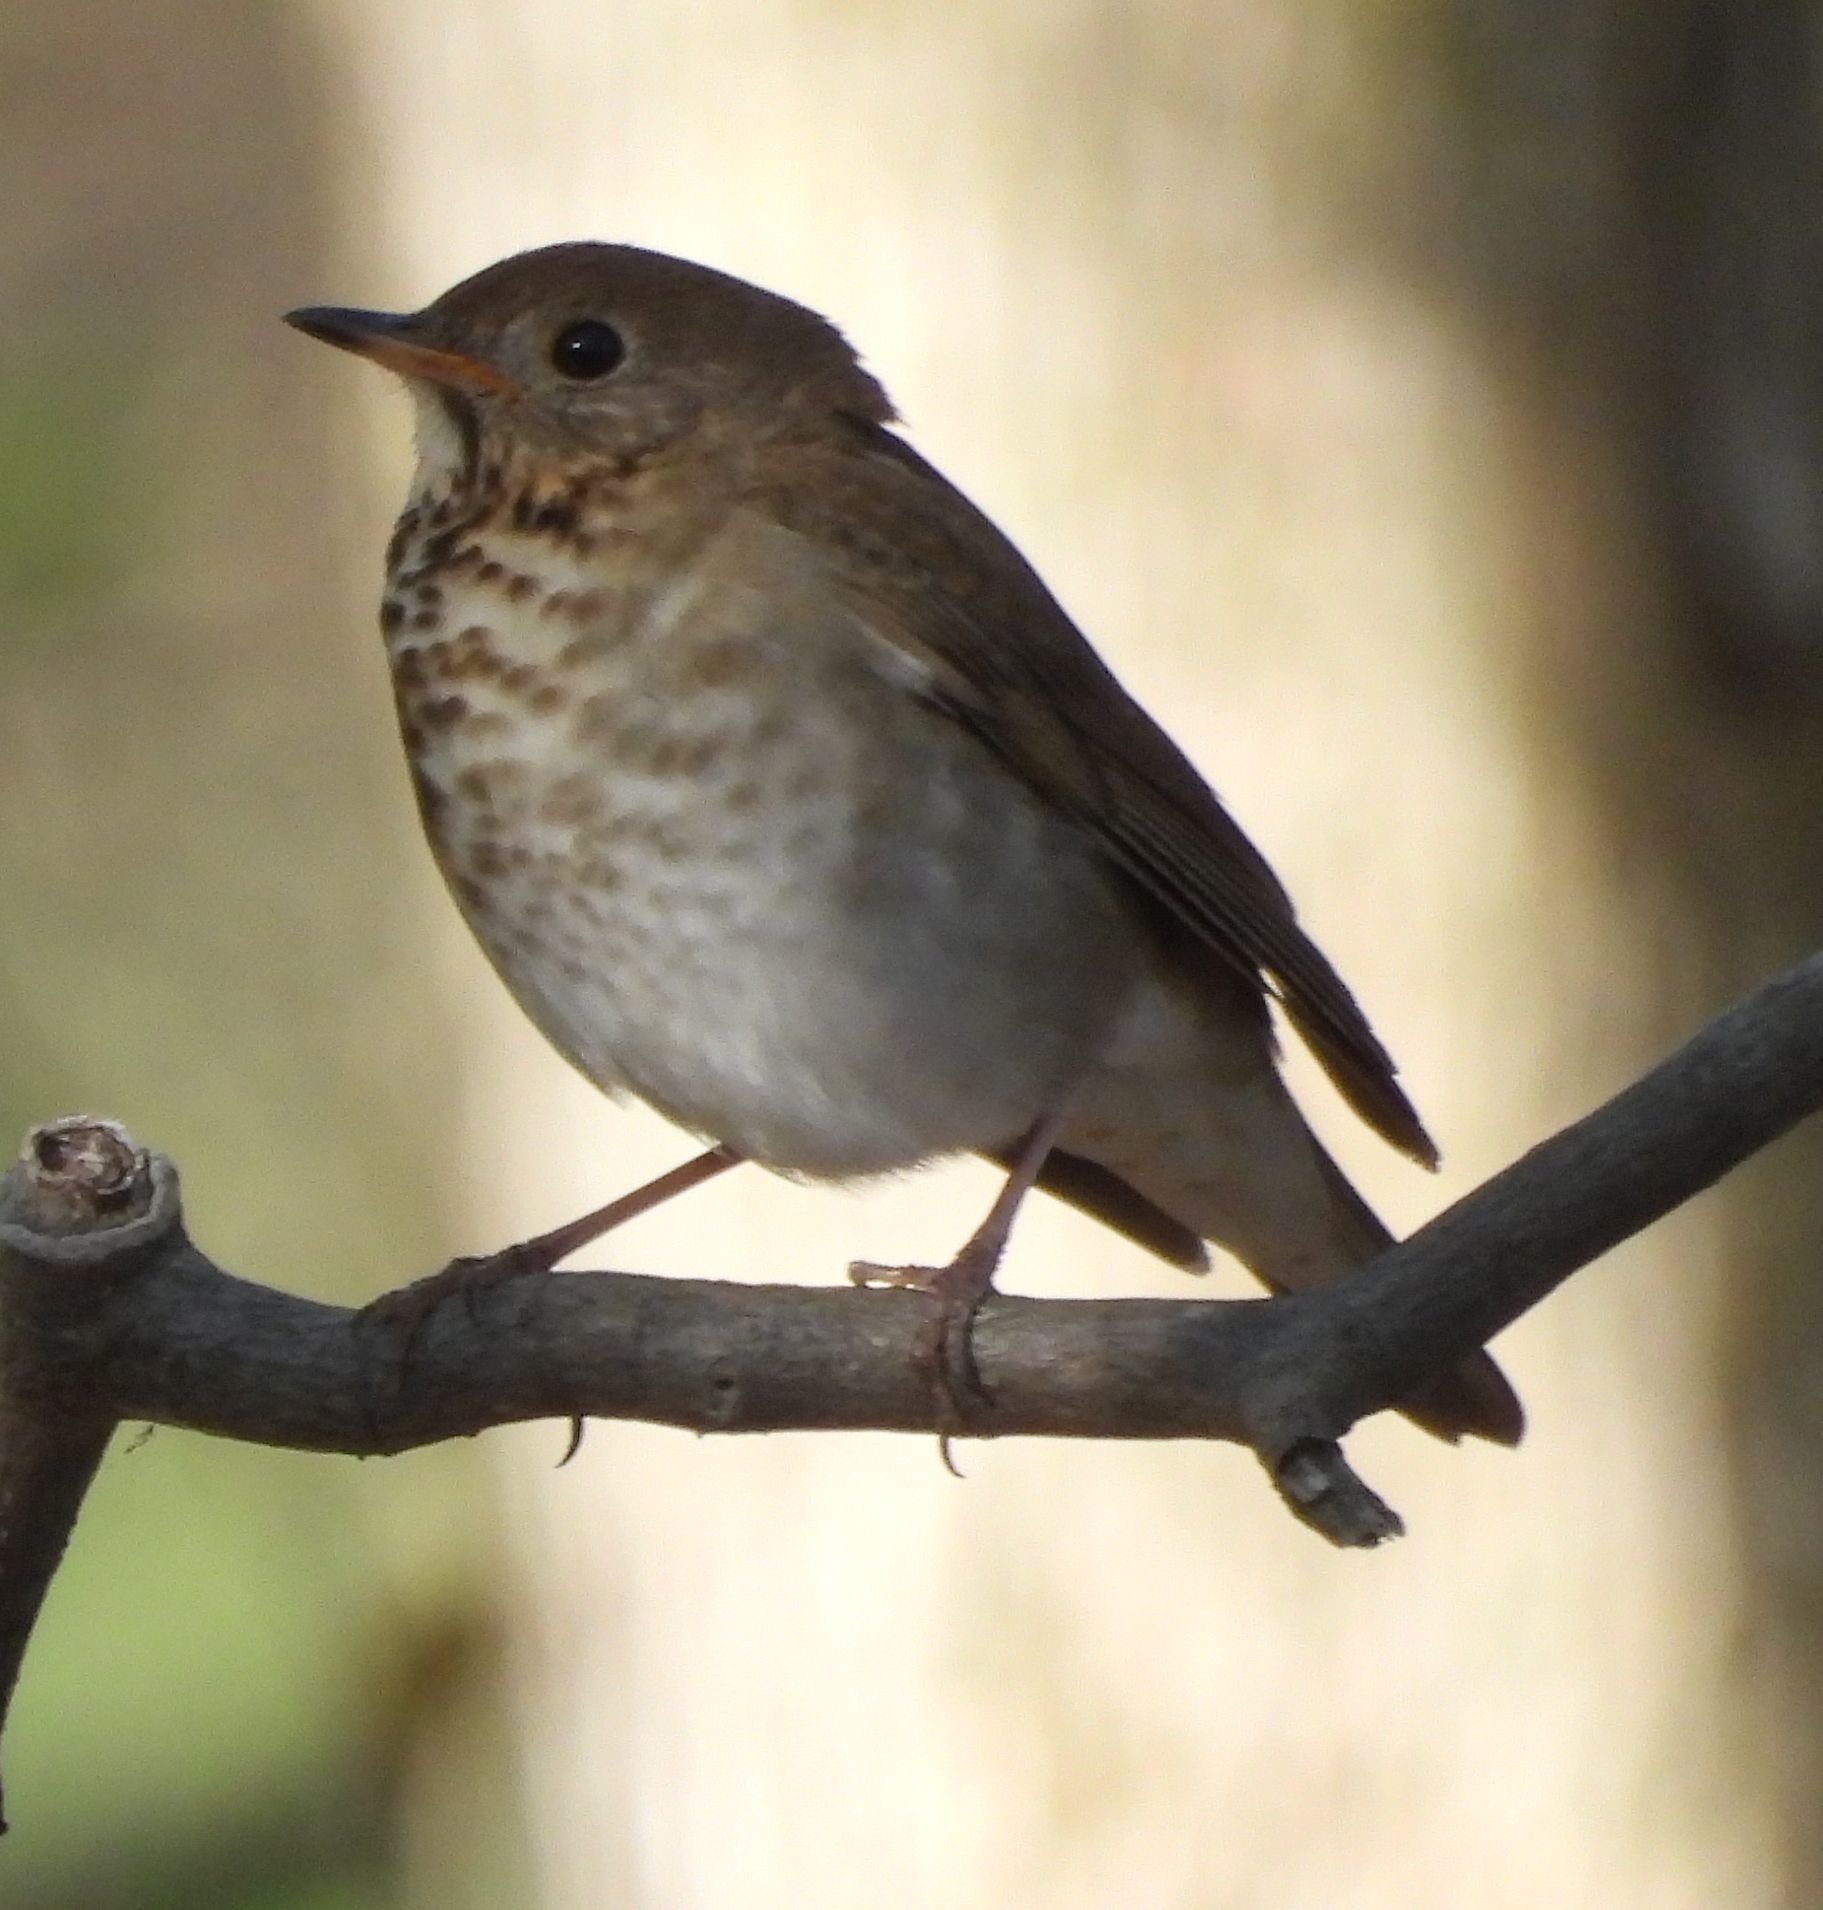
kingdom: Animalia
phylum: Chordata
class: Aves
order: Passeriformes
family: Turdidae
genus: Catharus
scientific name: Catharus guttatus
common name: Hermit thrush
